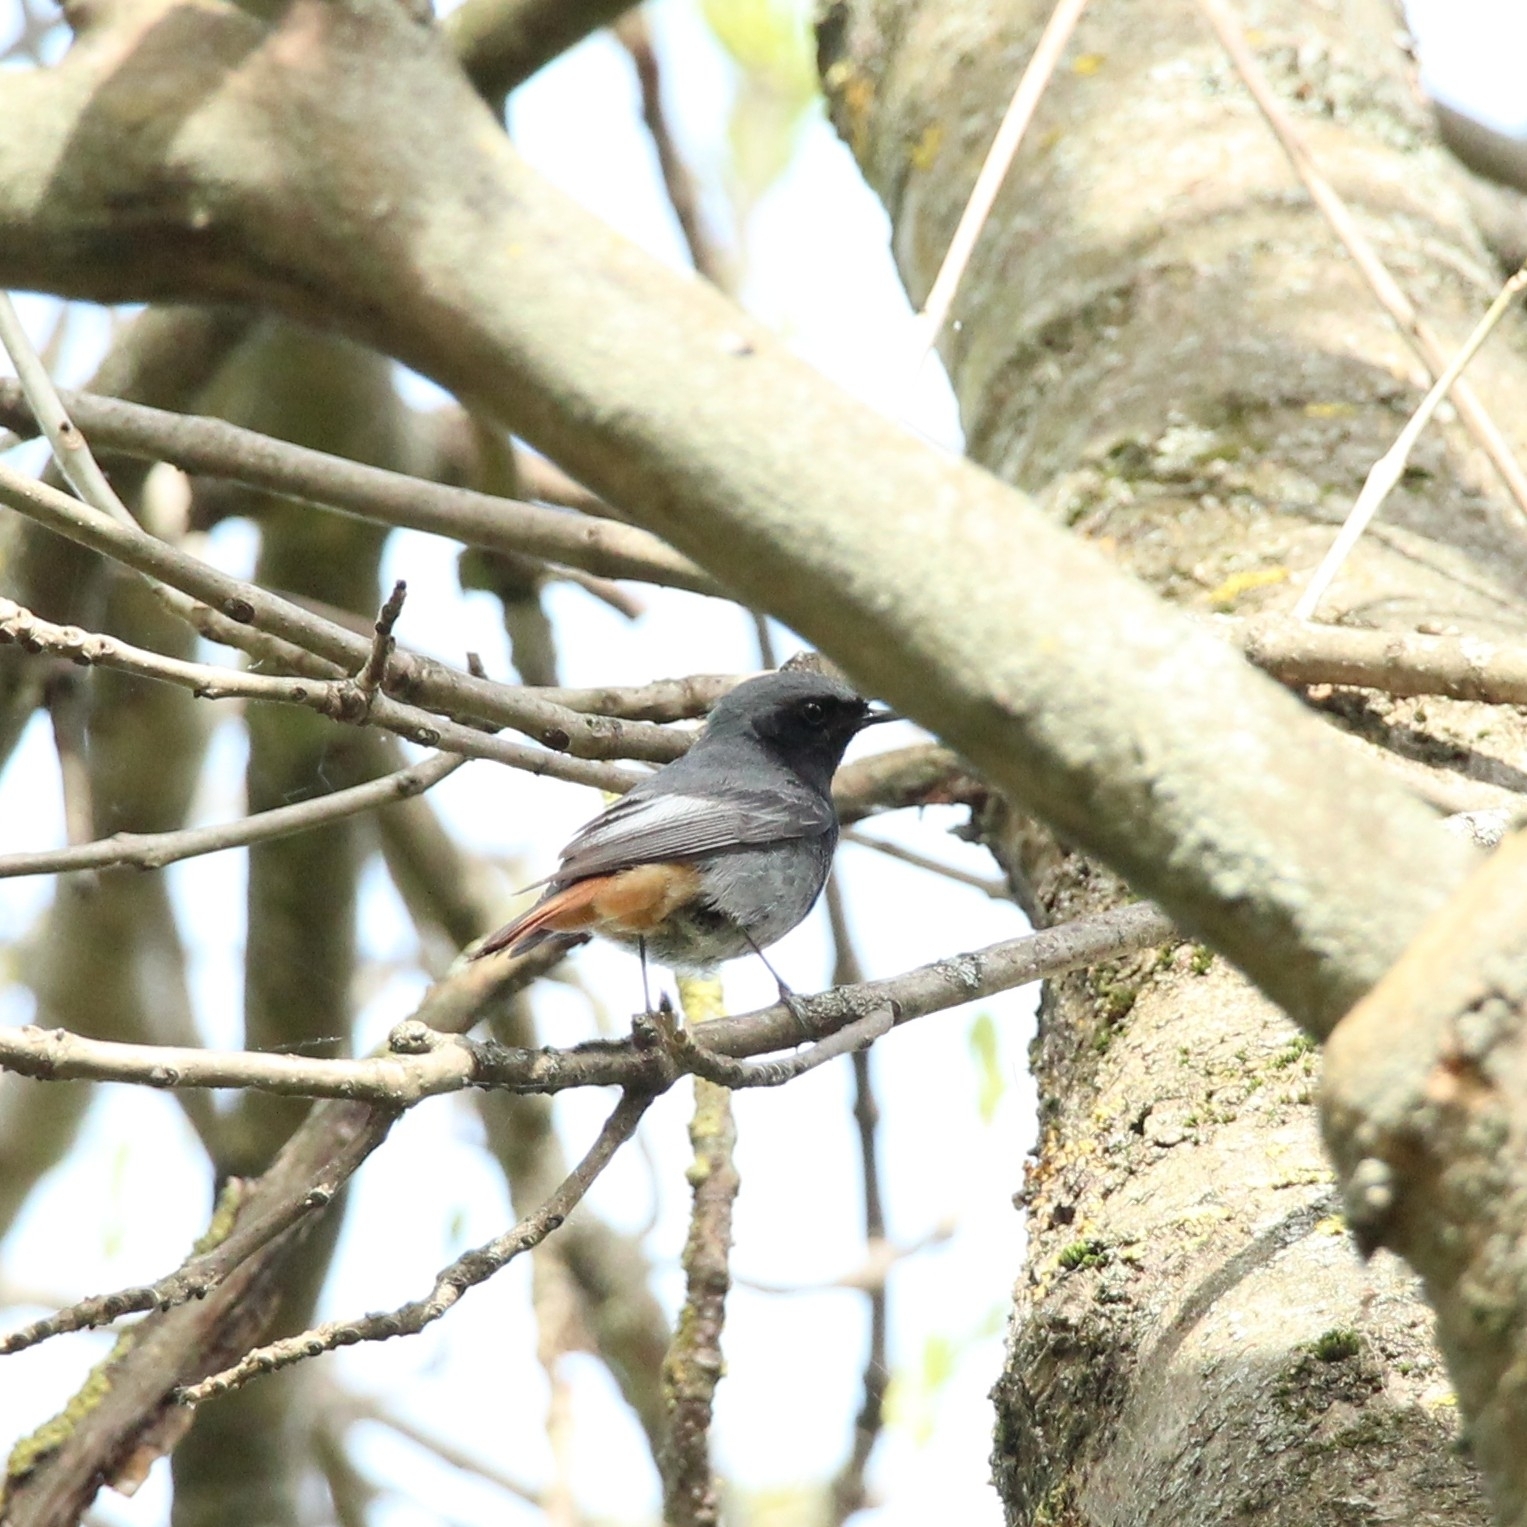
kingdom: Animalia
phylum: Chordata
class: Aves
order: Passeriformes
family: Muscicapidae
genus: Phoenicurus
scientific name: Phoenicurus ochruros
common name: Black redstart
